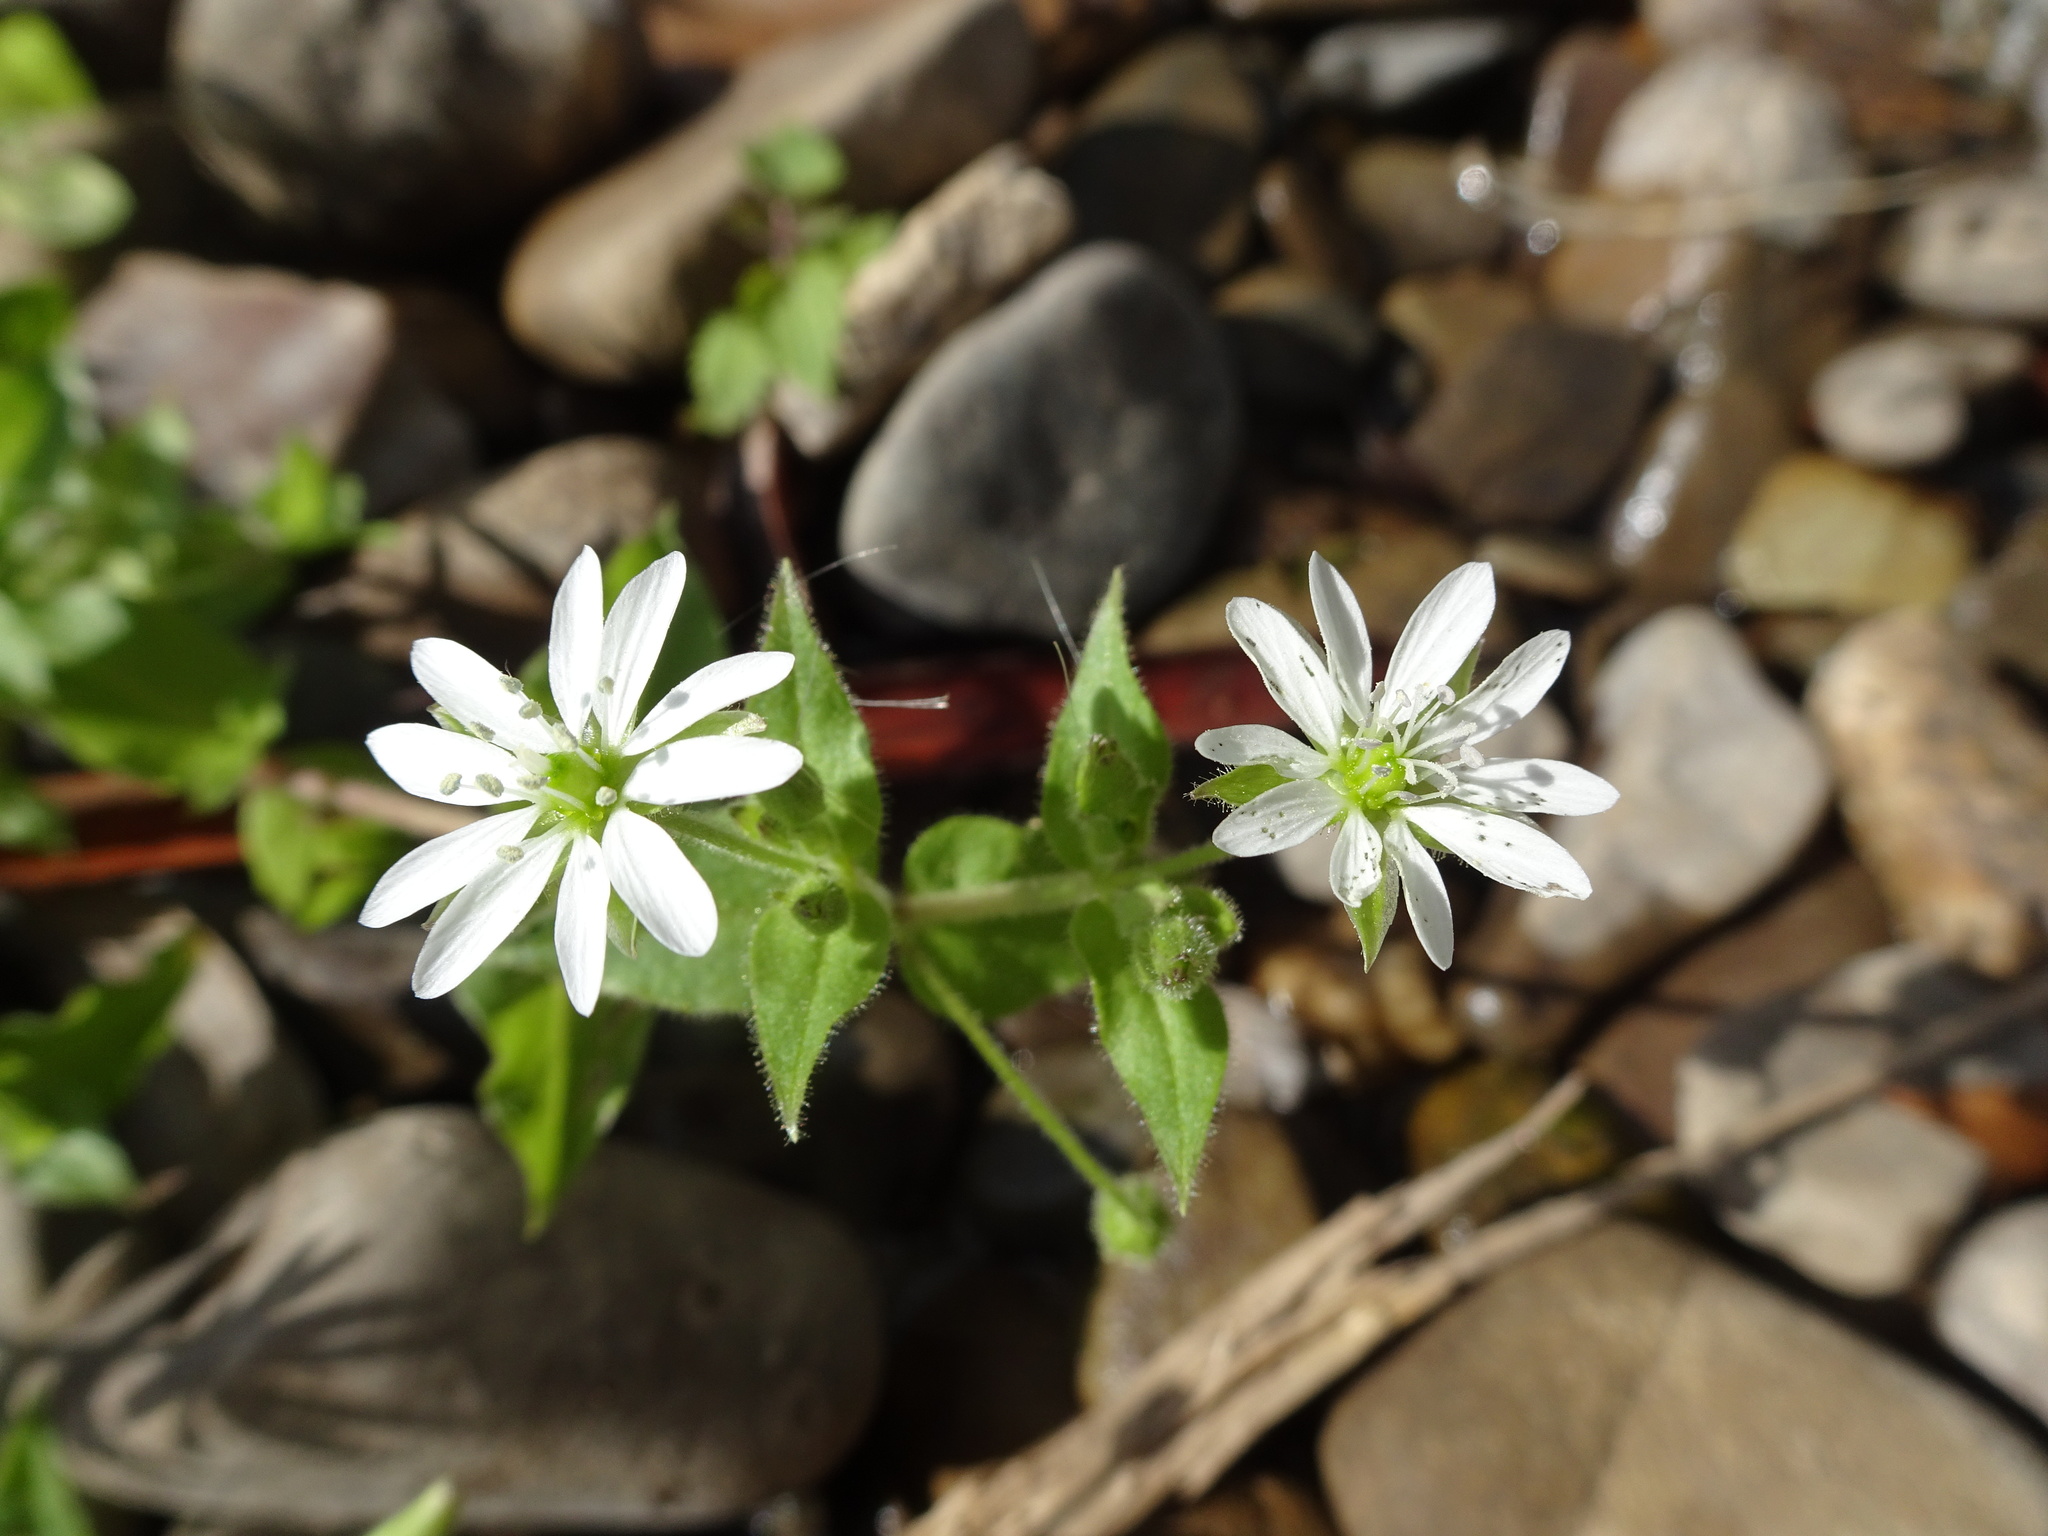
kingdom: Plantae
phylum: Tracheophyta
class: Magnoliopsida
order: Caryophyllales
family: Caryophyllaceae
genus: Stellaria
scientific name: Stellaria aquatica
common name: Water chickweed
